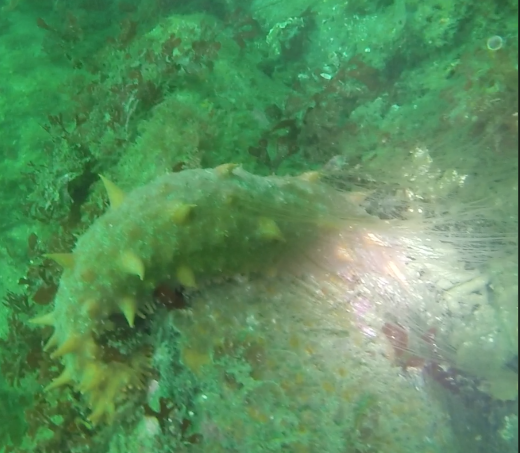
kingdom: Animalia
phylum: Echinodermata
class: Holothuroidea
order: Synallactida
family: Stichopodidae
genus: Apostichopus
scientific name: Apostichopus californicus
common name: California sea cucumber
